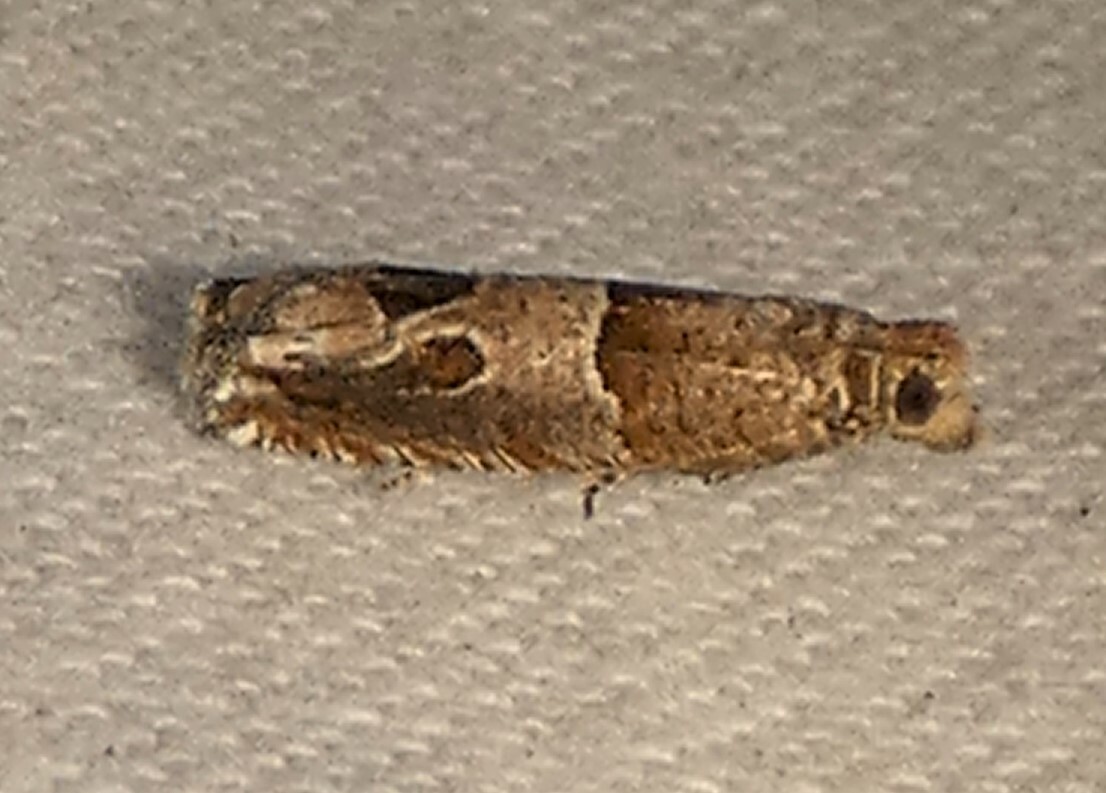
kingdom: Animalia
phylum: Arthropoda
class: Insecta
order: Lepidoptera
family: Tortricidae
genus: Sonia
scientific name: Sonia constrictana
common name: Constricted sonia moth
